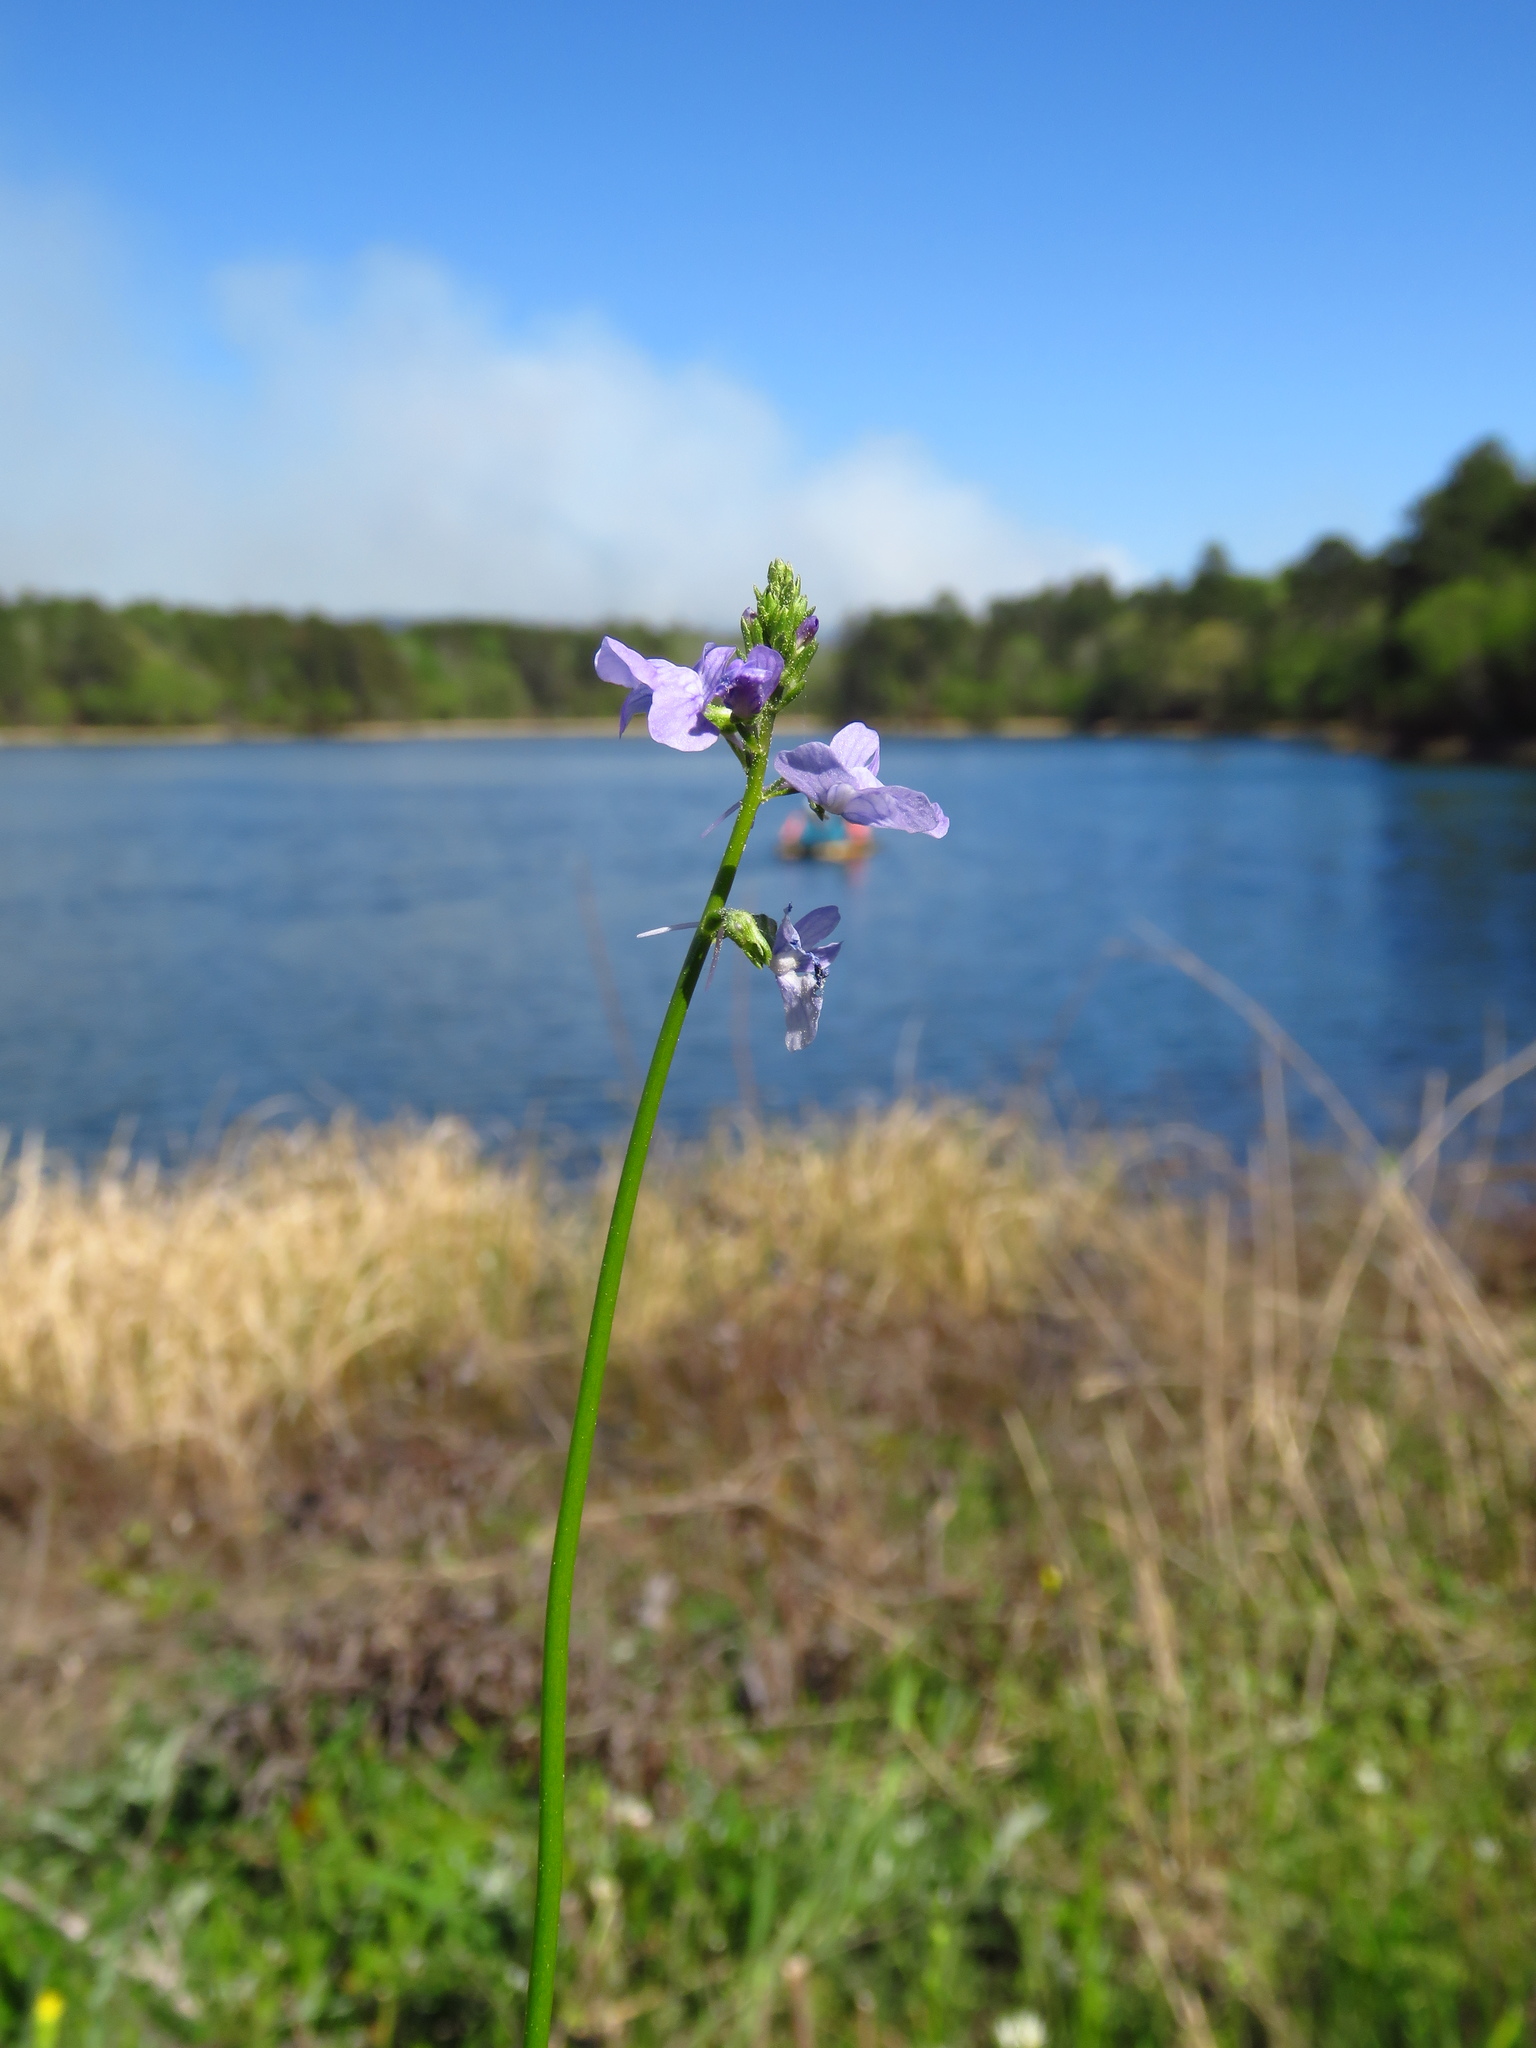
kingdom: Plantae
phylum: Tracheophyta
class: Magnoliopsida
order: Lamiales
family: Plantaginaceae
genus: Nuttallanthus
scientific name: Nuttallanthus texanus
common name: Texas toadflax
